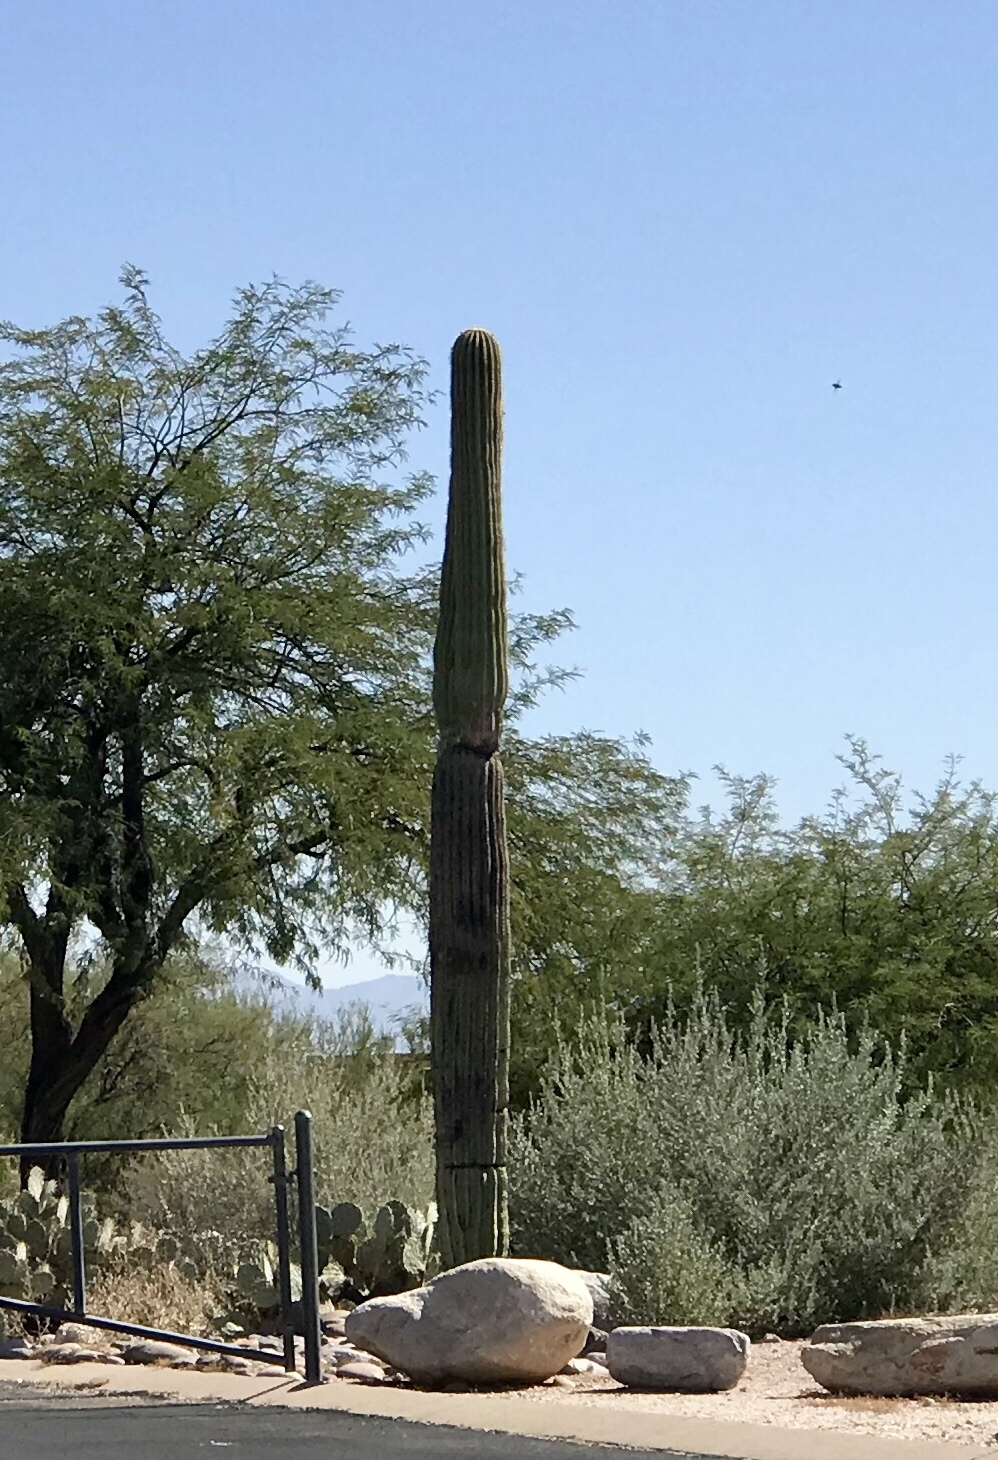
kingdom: Plantae
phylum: Tracheophyta
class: Magnoliopsida
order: Caryophyllales
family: Cactaceae
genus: Carnegiea
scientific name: Carnegiea gigantea
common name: Saguaro
